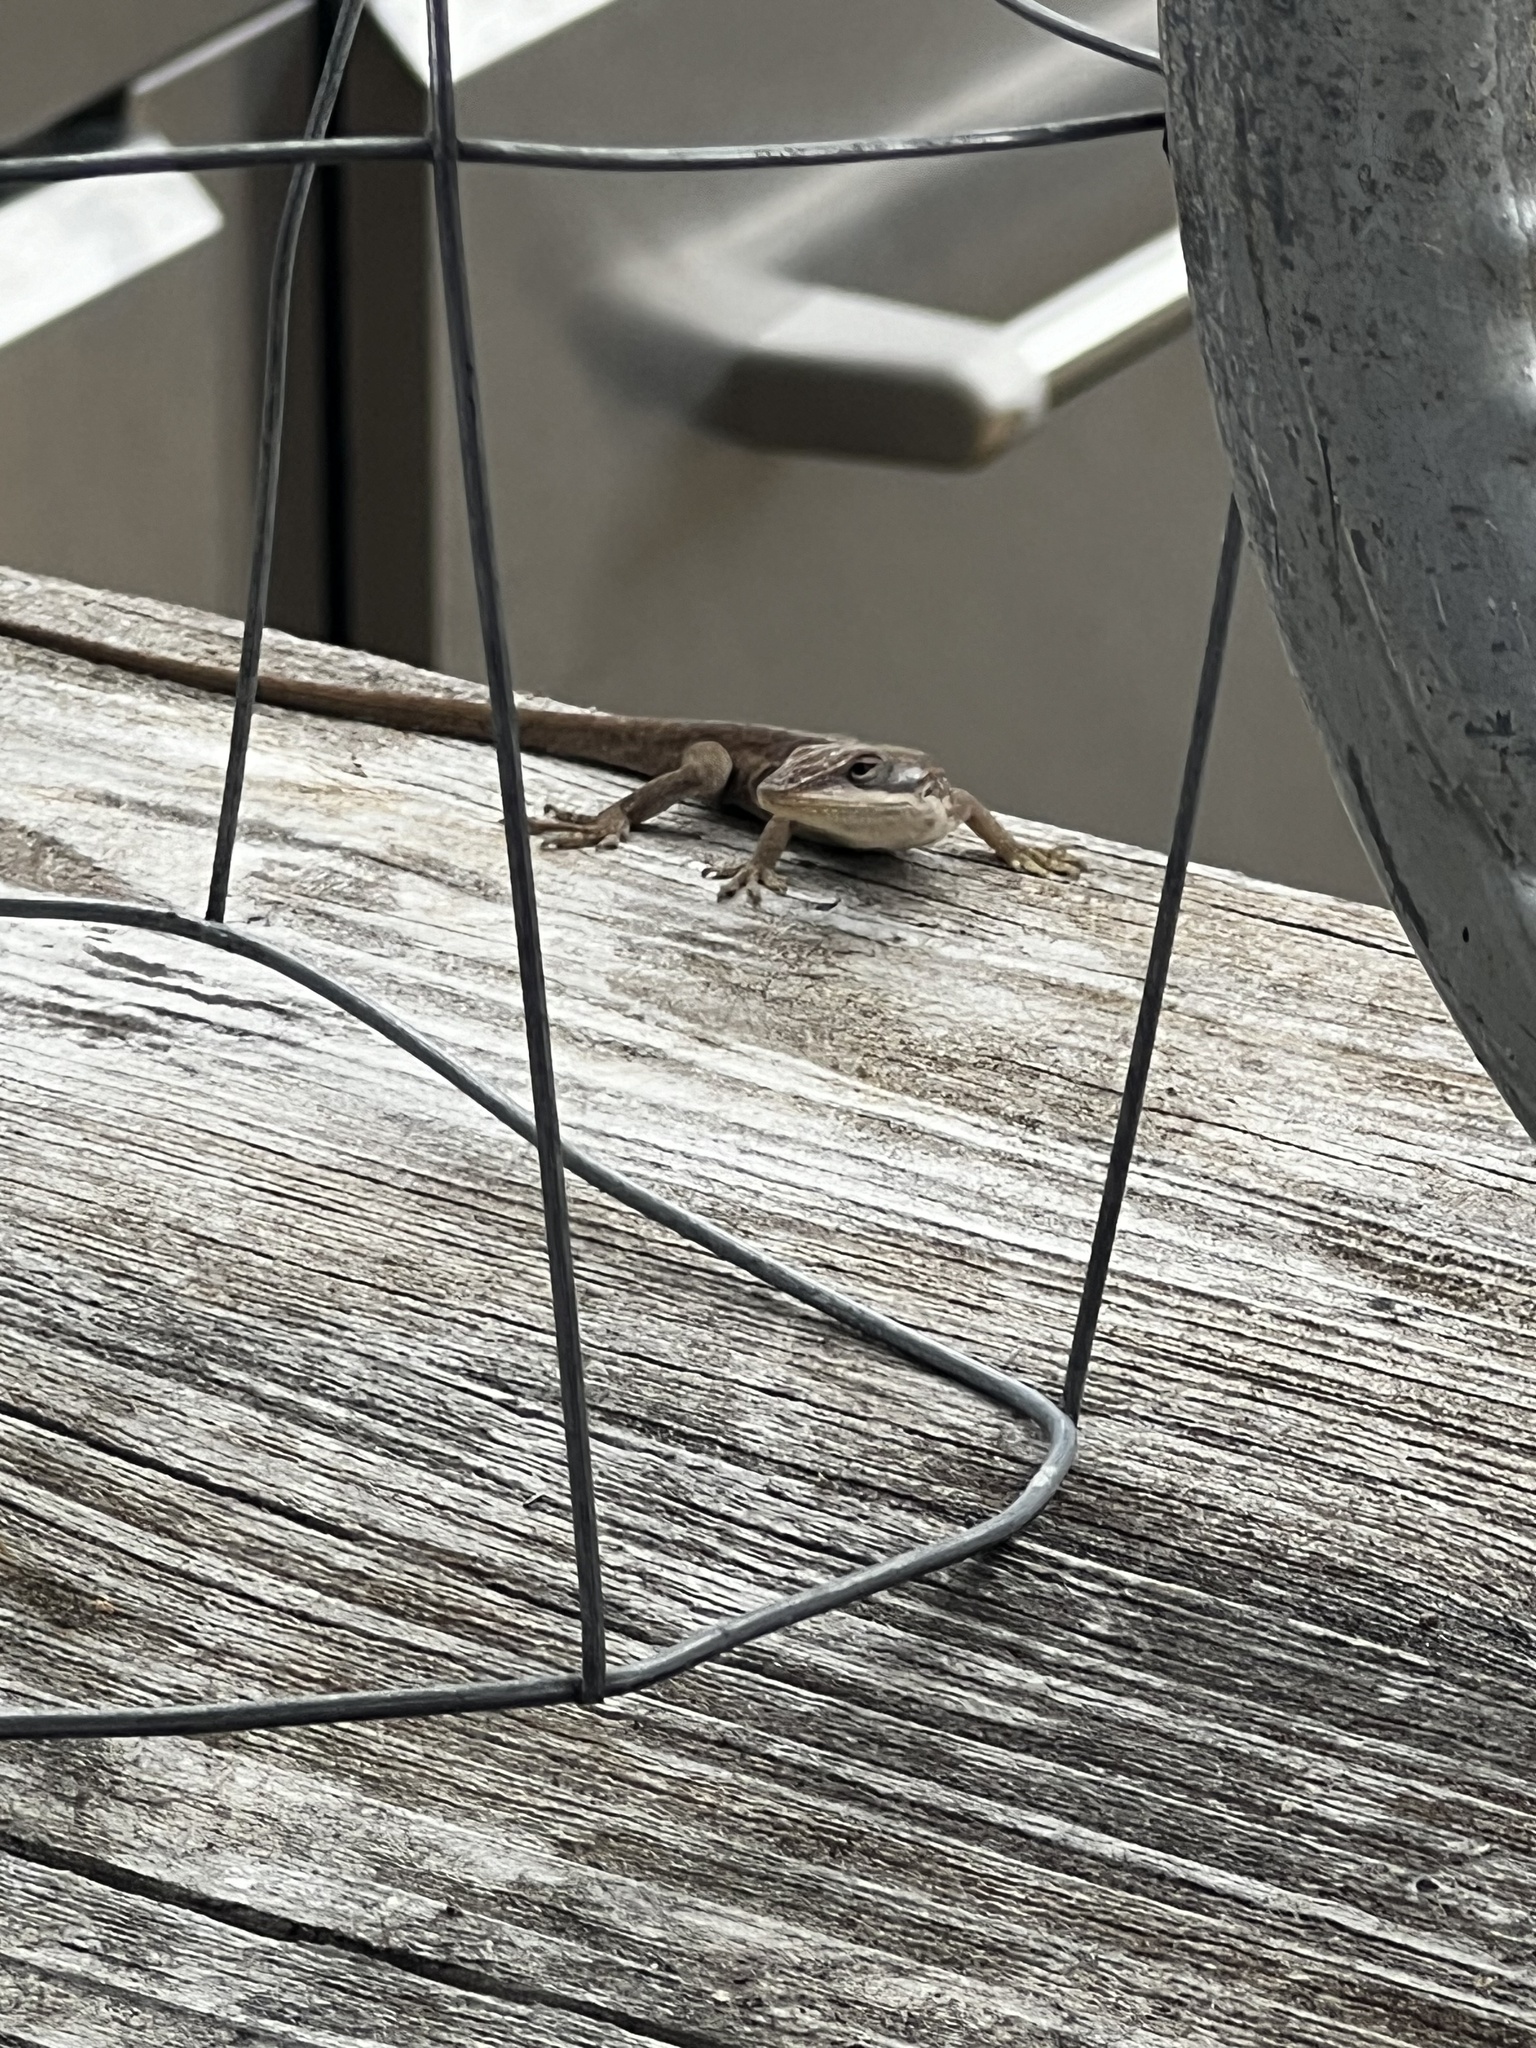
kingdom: Animalia
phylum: Chordata
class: Squamata
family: Dactyloidae
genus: Anolis
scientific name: Anolis carolinensis
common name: Green anole
